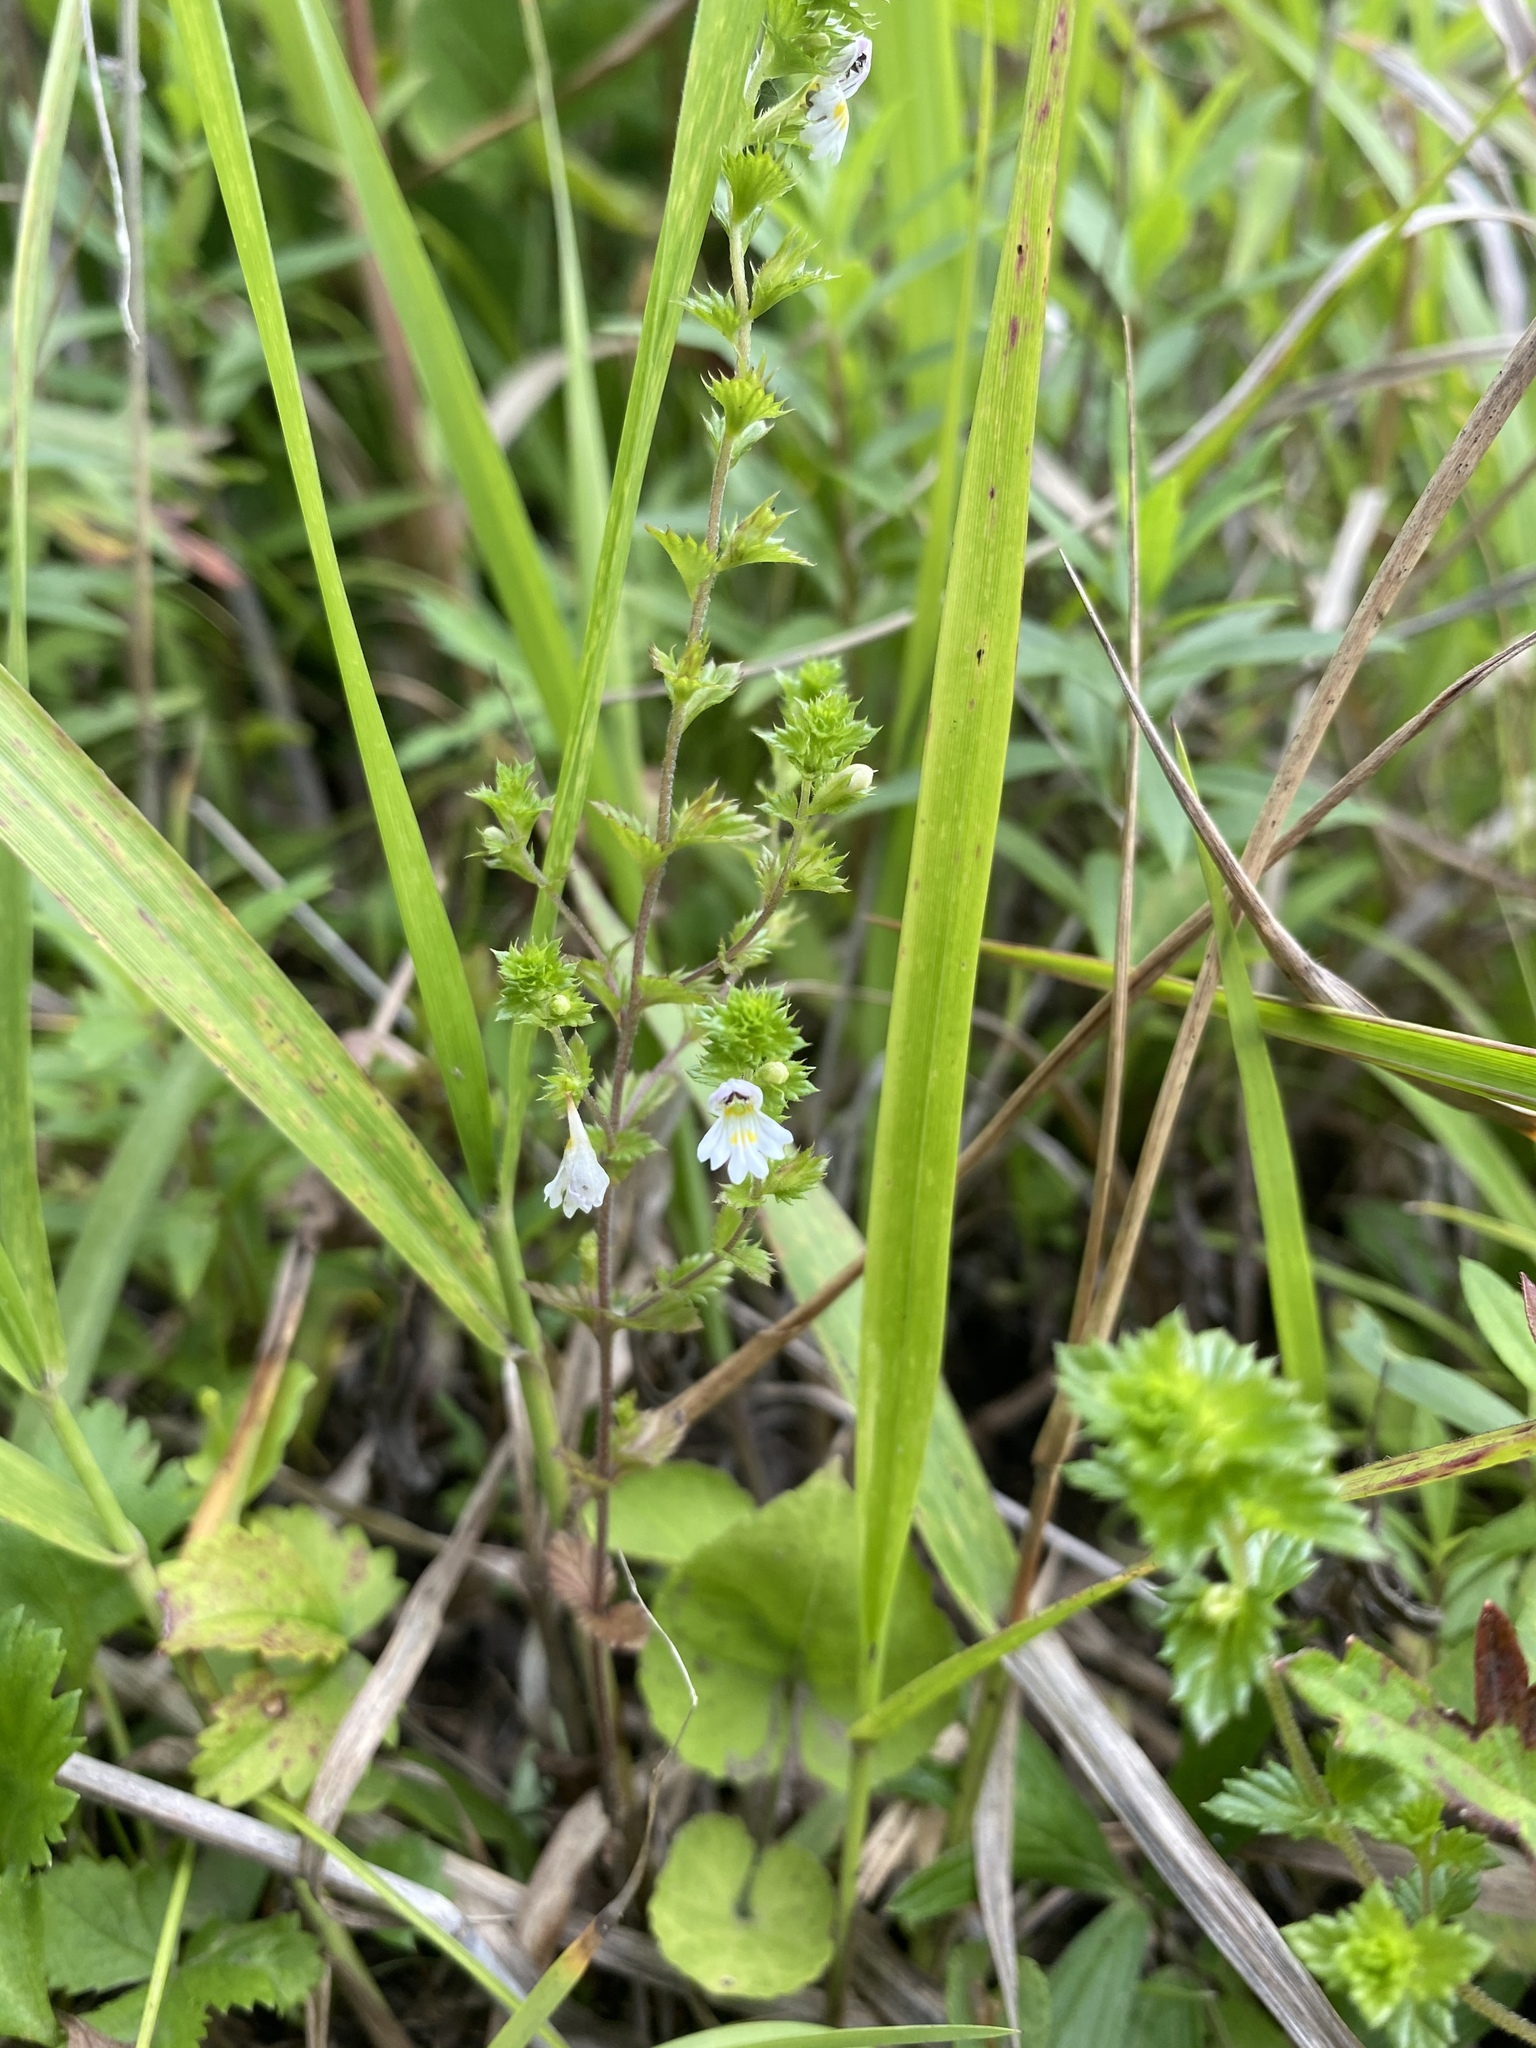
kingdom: Plantae
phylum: Tracheophyta
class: Magnoliopsida
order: Lamiales
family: Orobanchaceae
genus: Euphrasia
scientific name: Euphrasia maximowiczii
